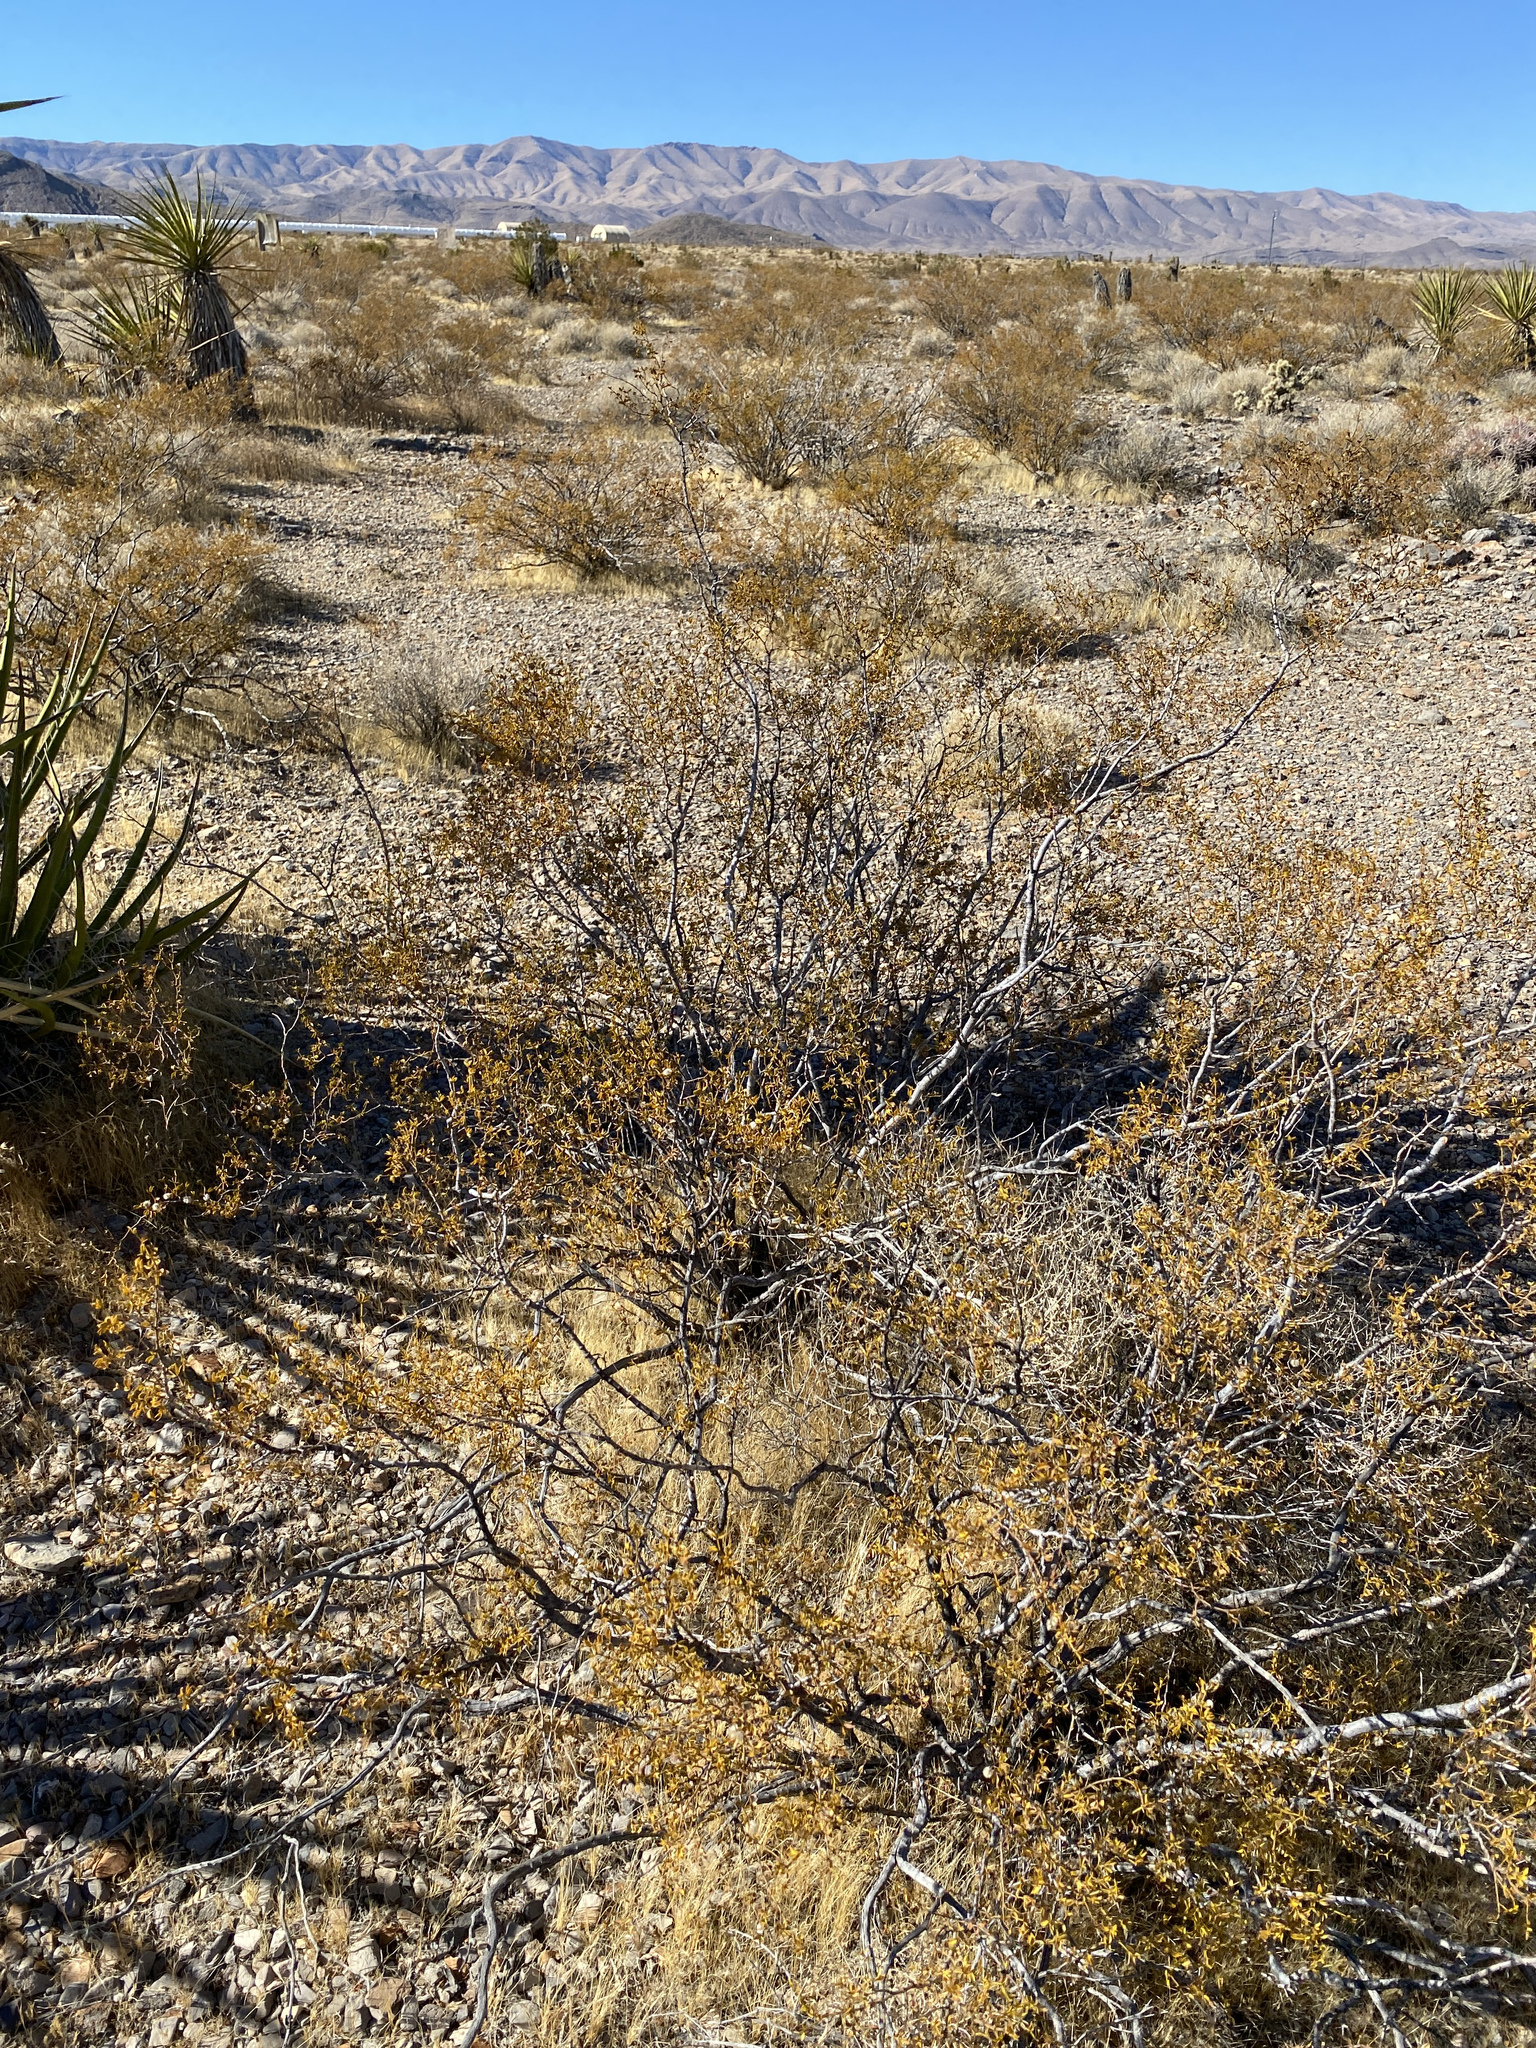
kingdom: Plantae
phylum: Tracheophyta
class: Magnoliopsida
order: Zygophyllales
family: Zygophyllaceae
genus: Larrea
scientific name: Larrea tridentata
